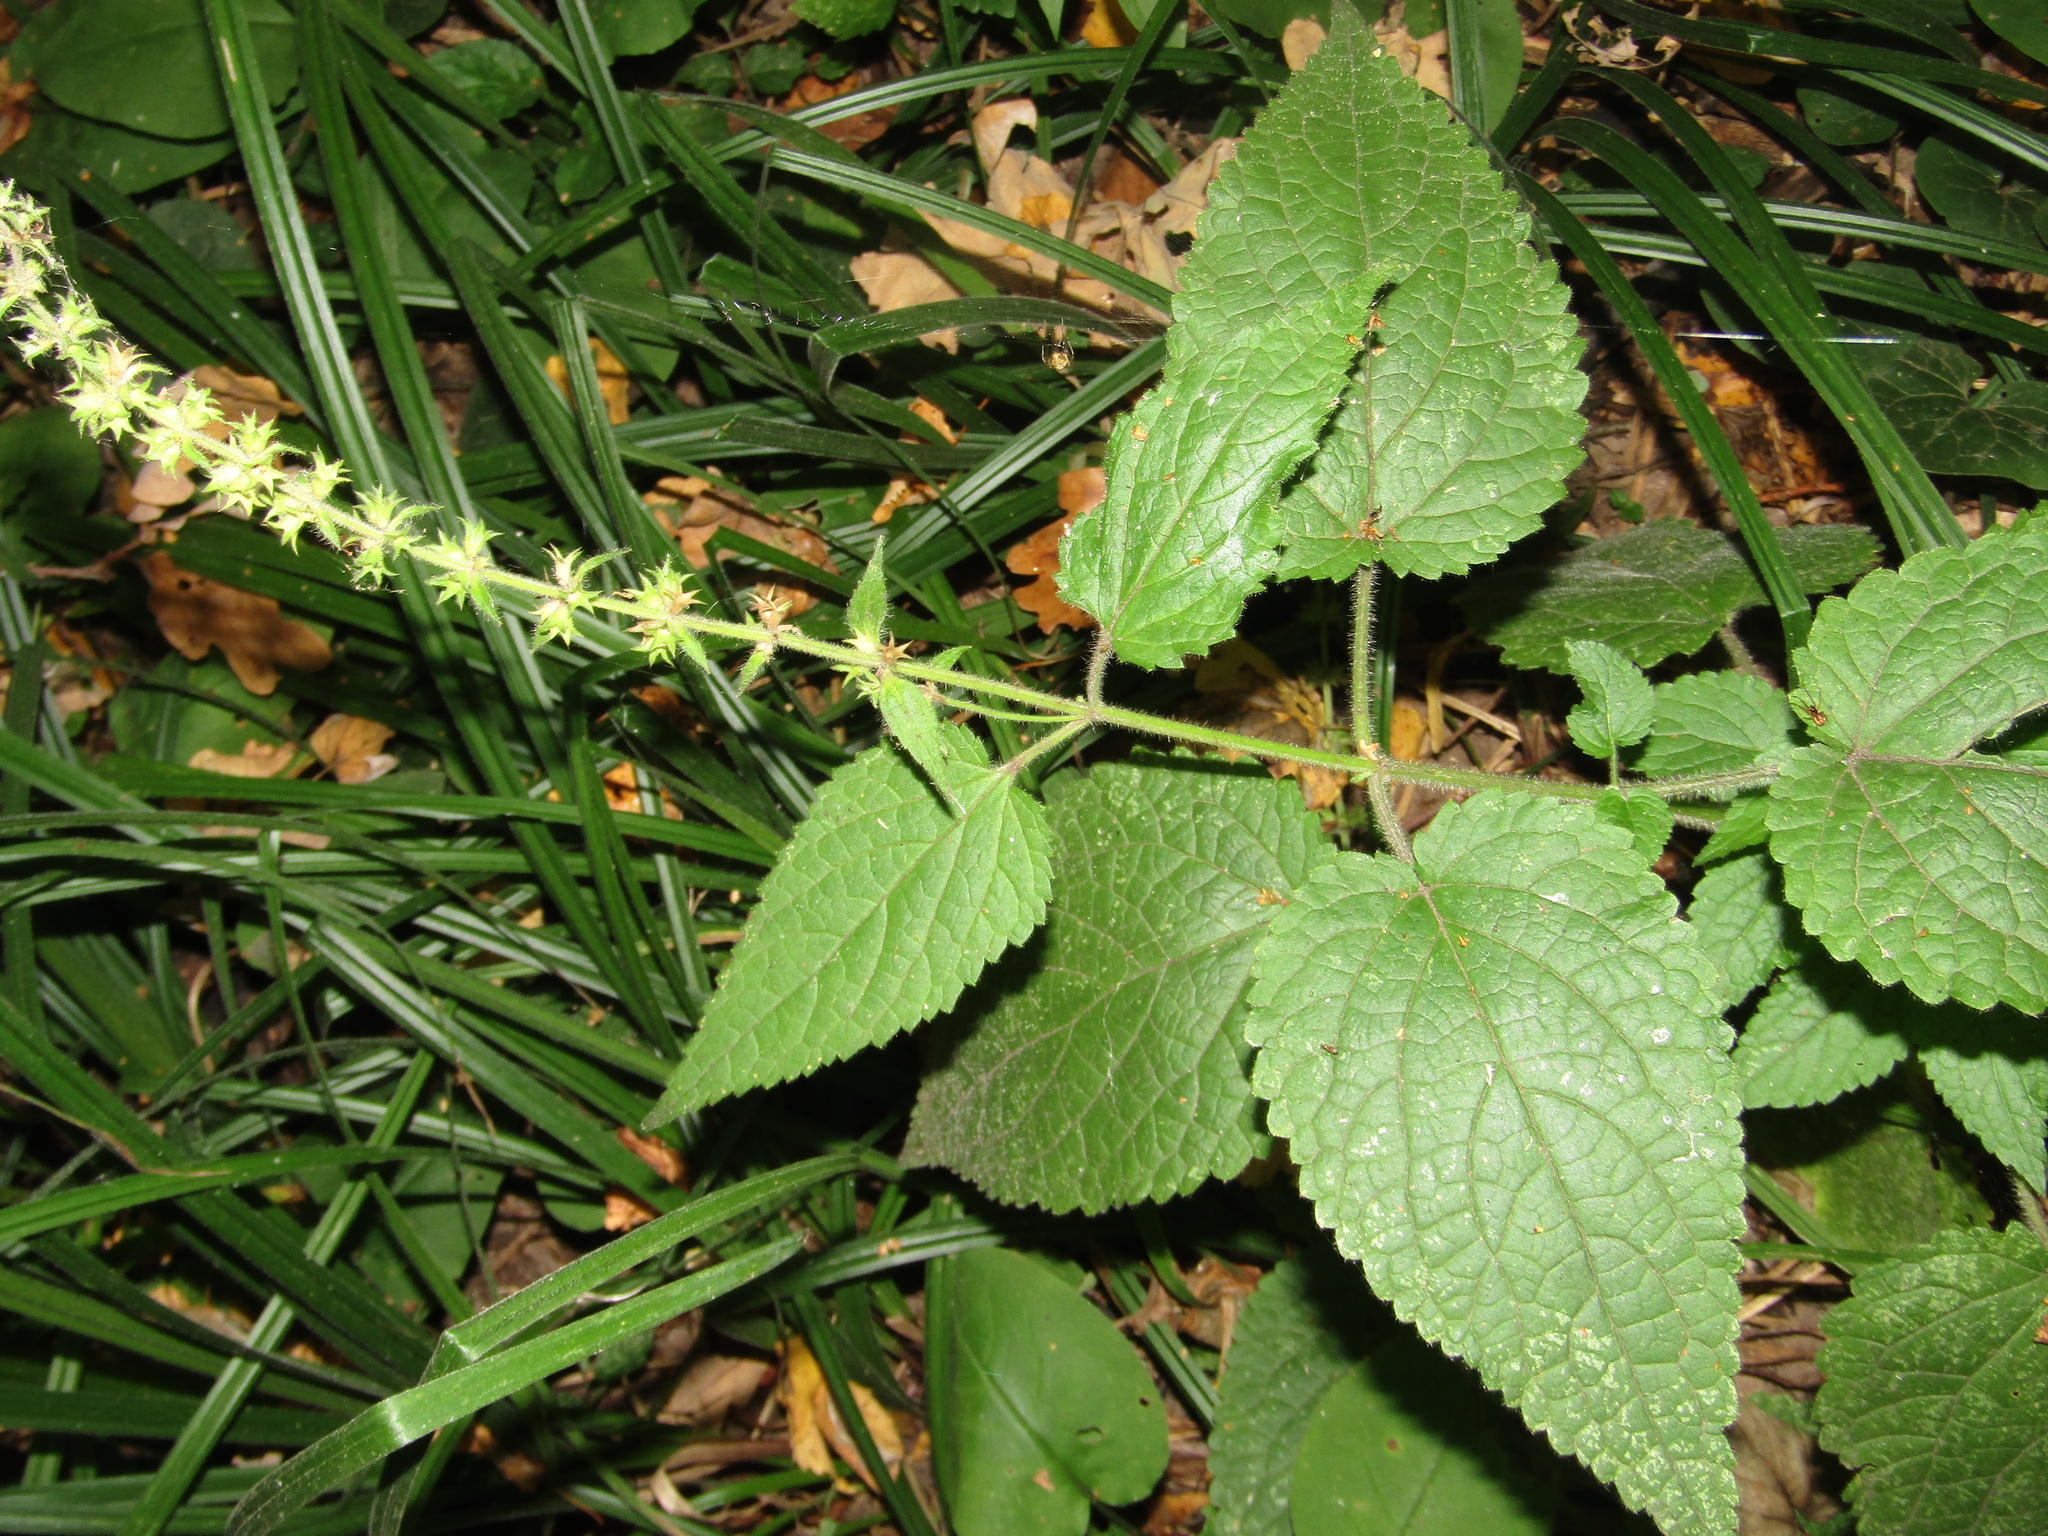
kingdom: Plantae
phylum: Tracheophyta
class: Magnoliopsida
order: Lamiales
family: Lamiaceae
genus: Stachys
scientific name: Stachys sylvatica
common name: Hedge woundwort
